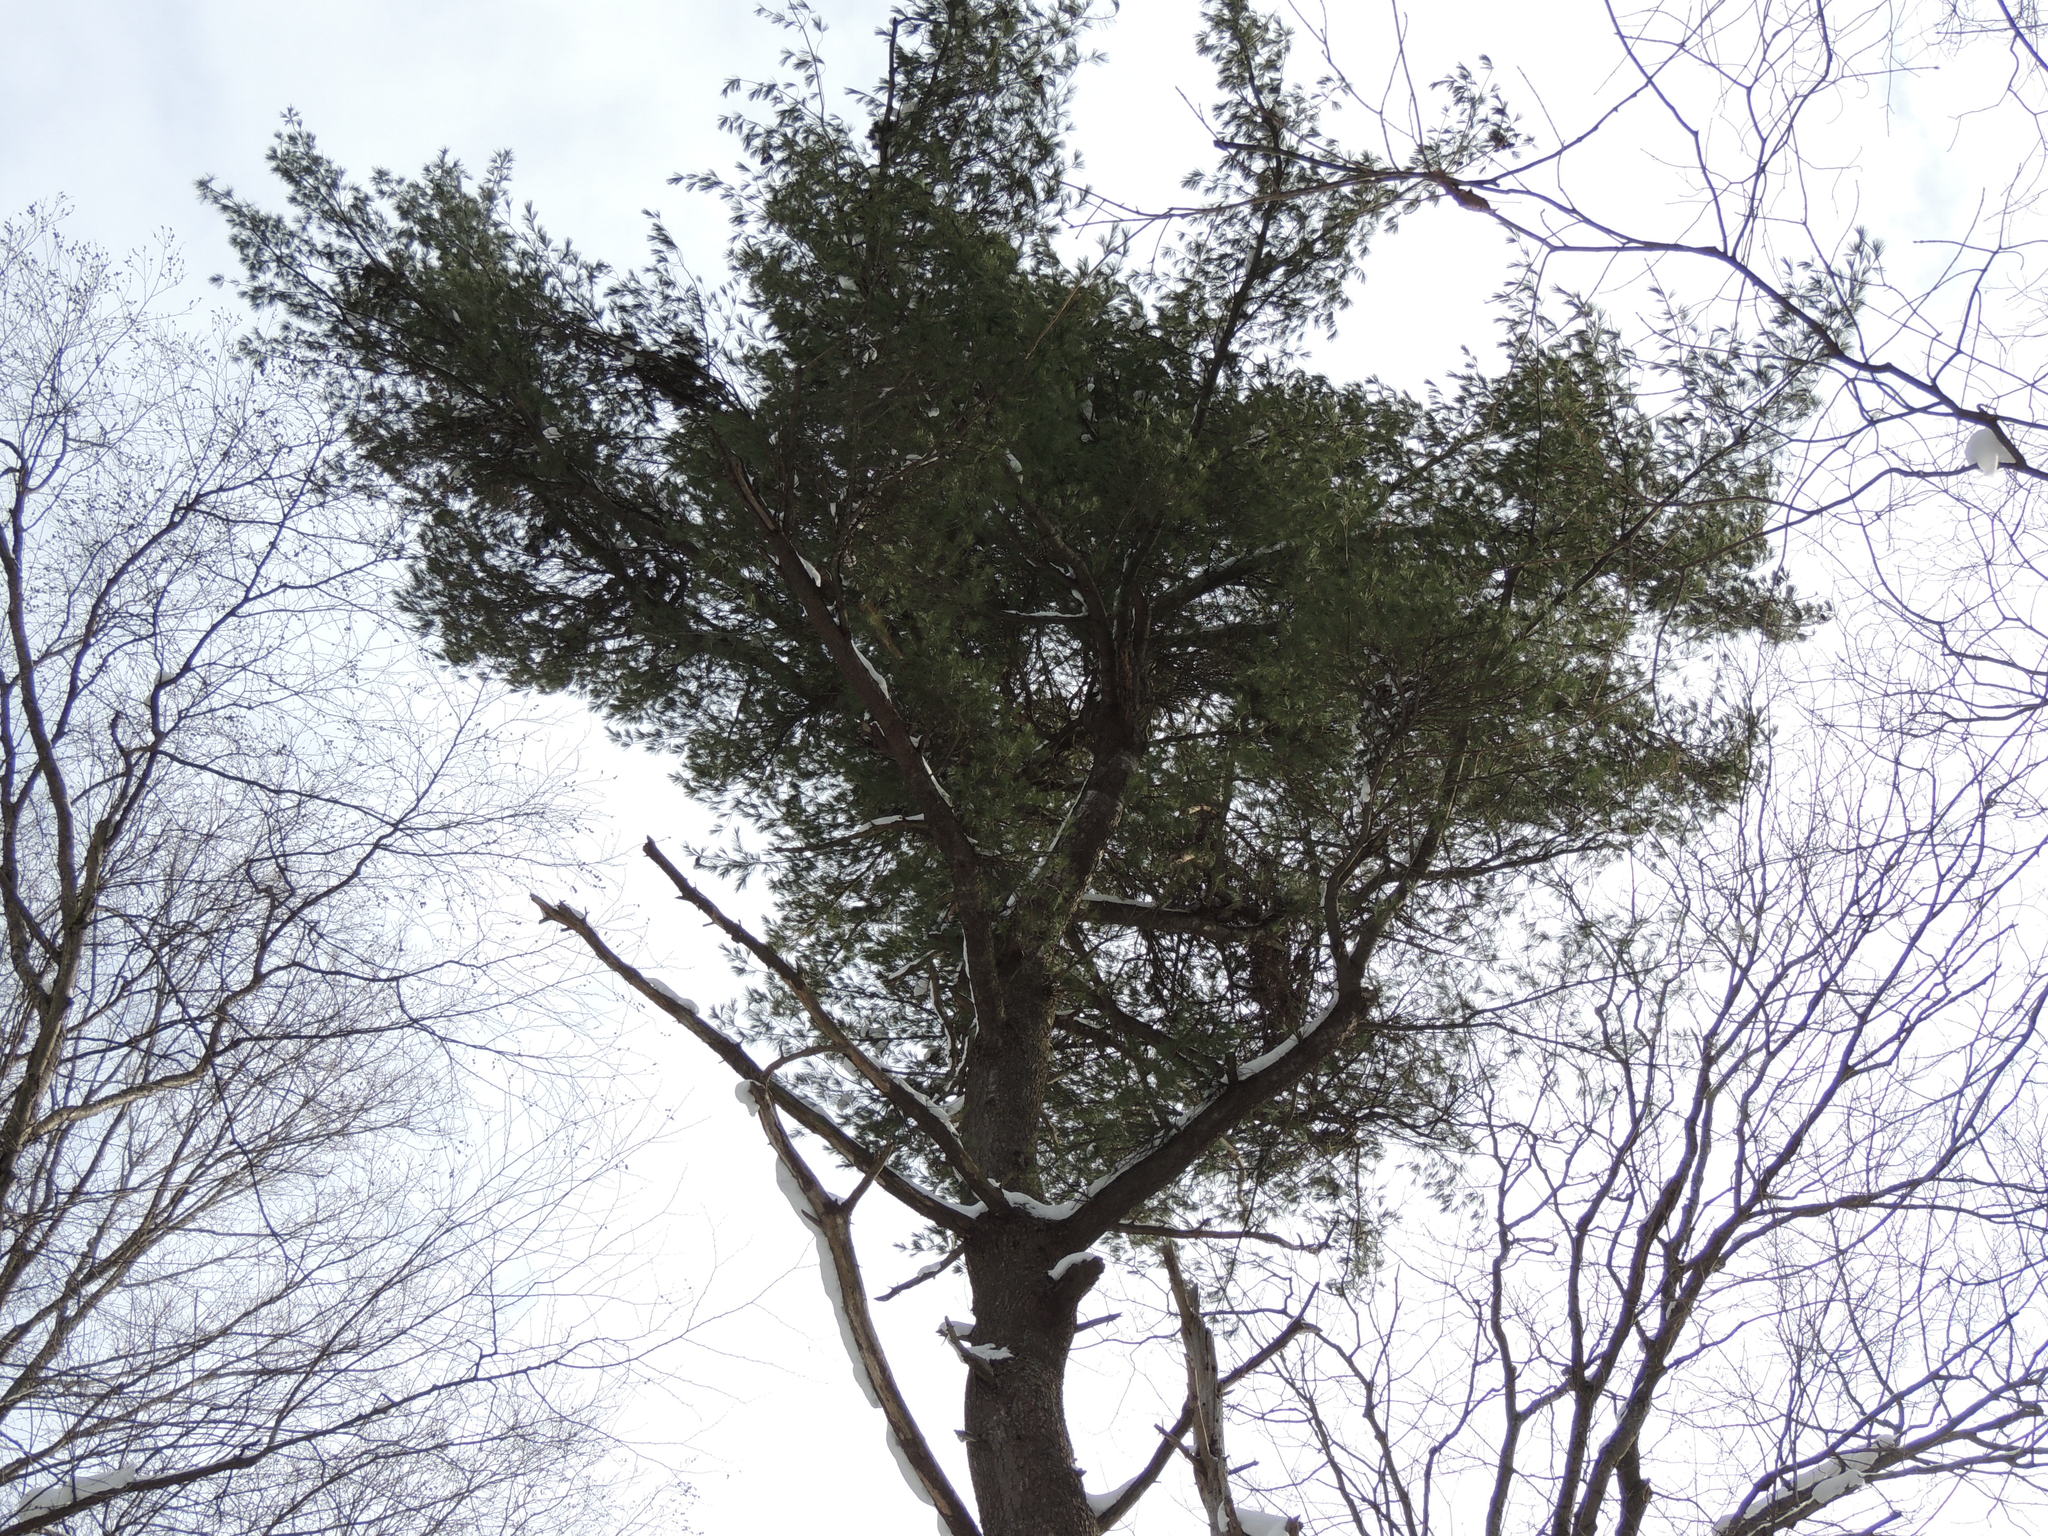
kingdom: Plantae
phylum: Tracheophyta
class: Pinopsida
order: Pinales
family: Pinaceae
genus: Pinus
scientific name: Pinus strobus
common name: Weymouth pine
